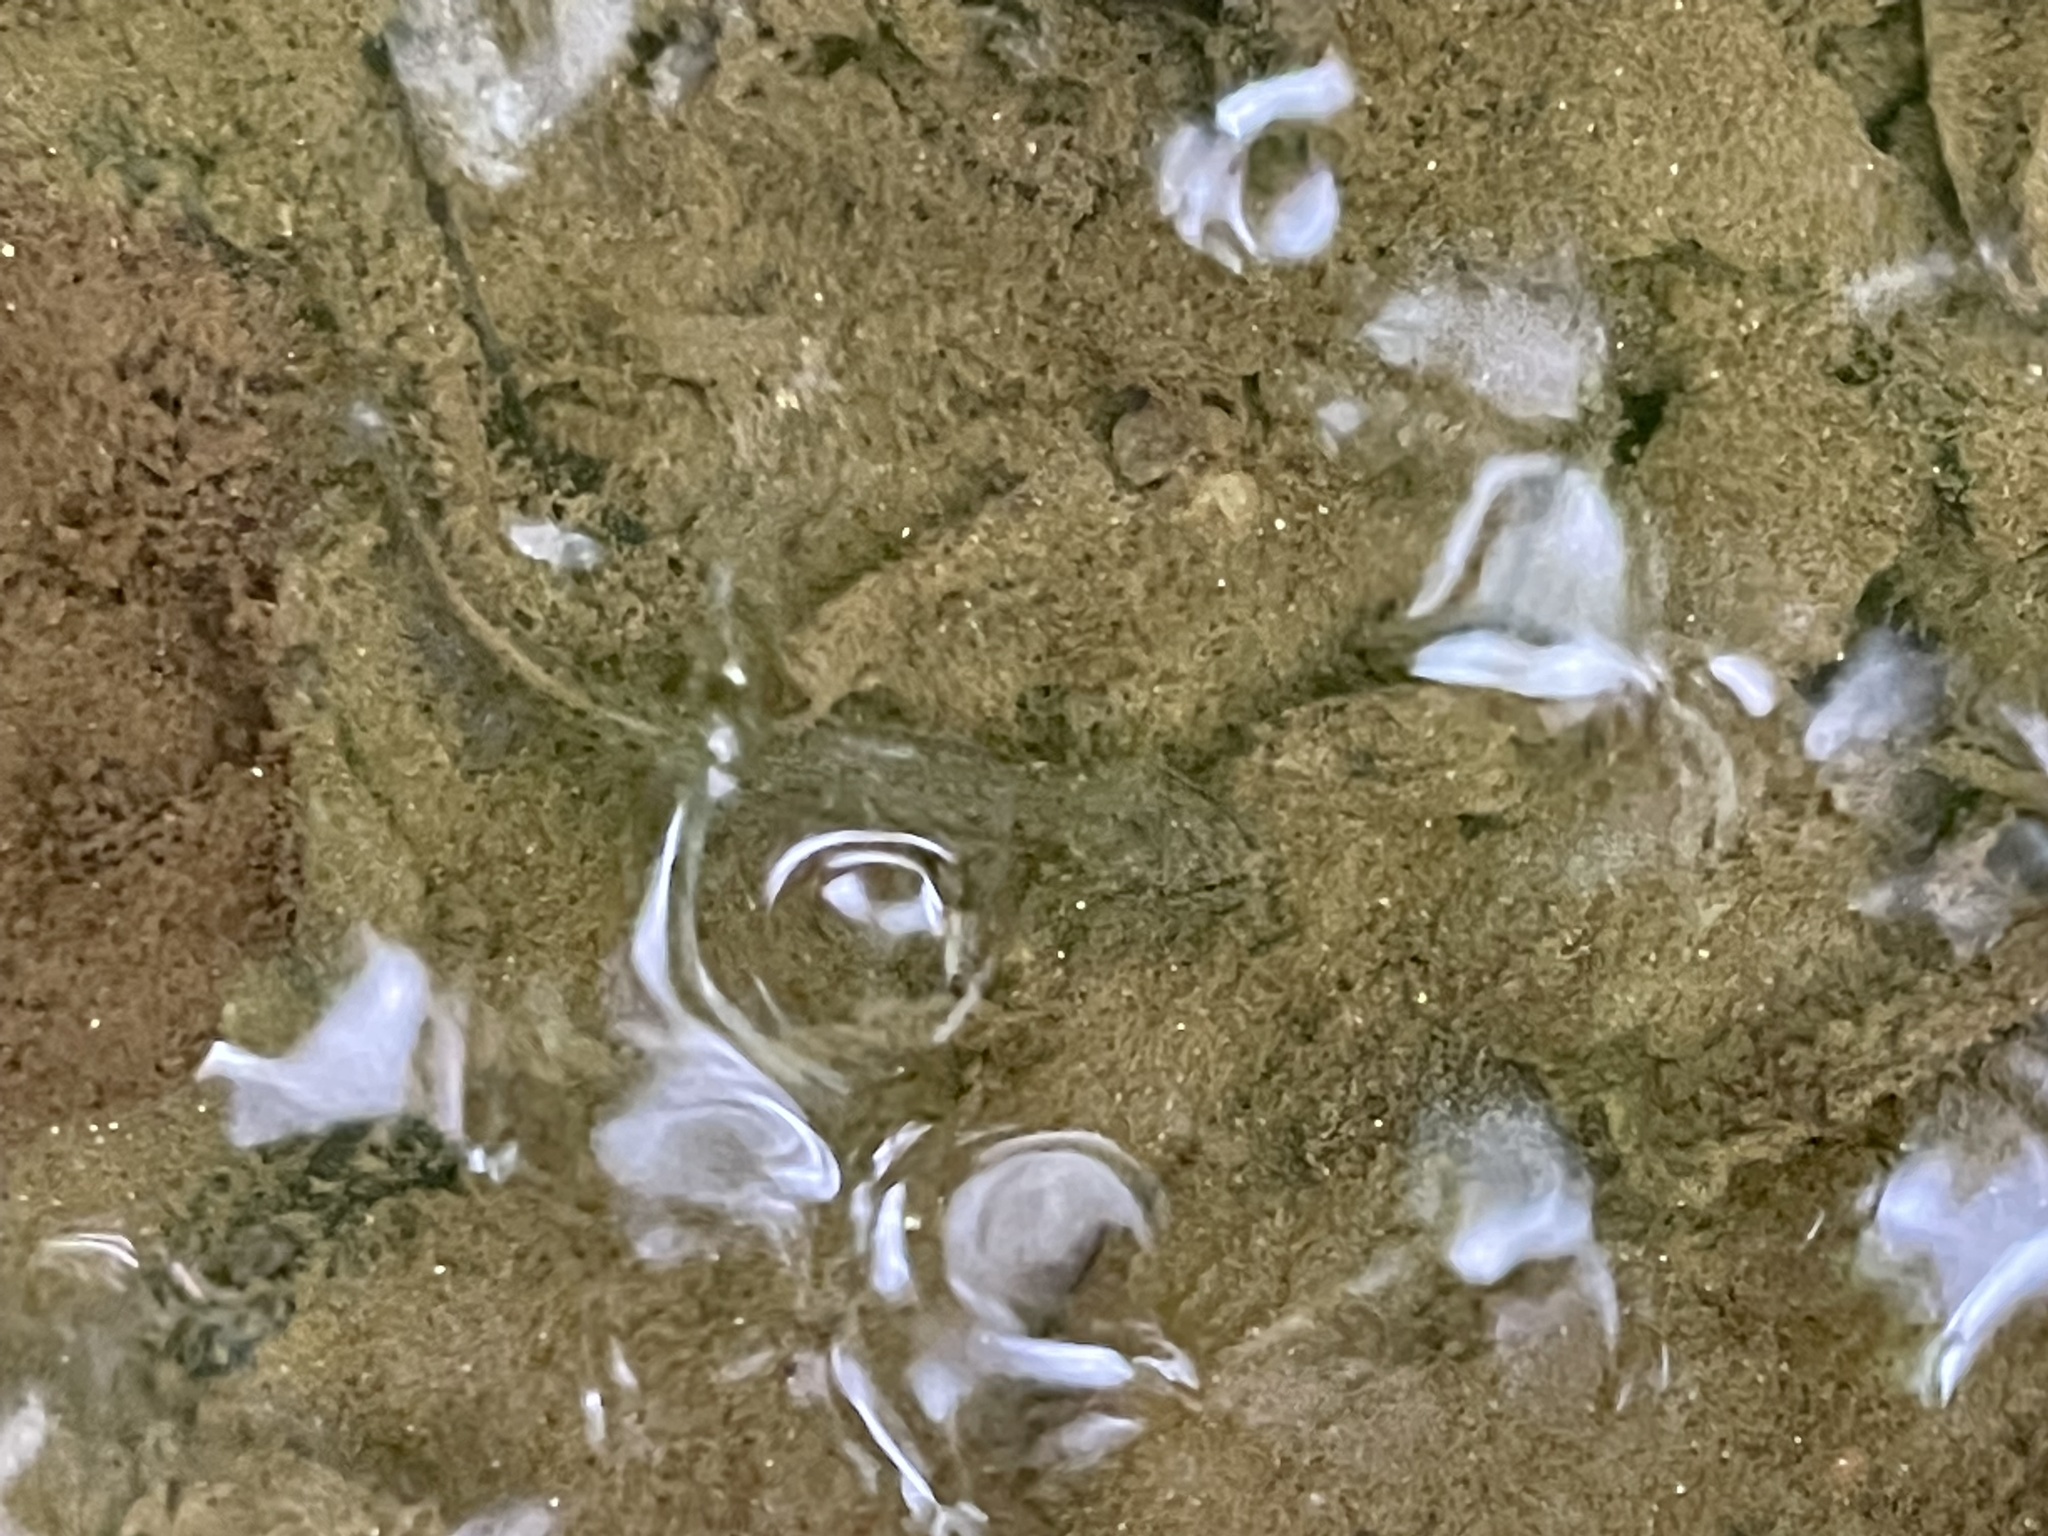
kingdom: Animalia
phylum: Chordata
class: Amphibia
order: Caudata
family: Plethodontidae
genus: Eurycea
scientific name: Eurycea cirrigera
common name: Southern two-lined salamander
